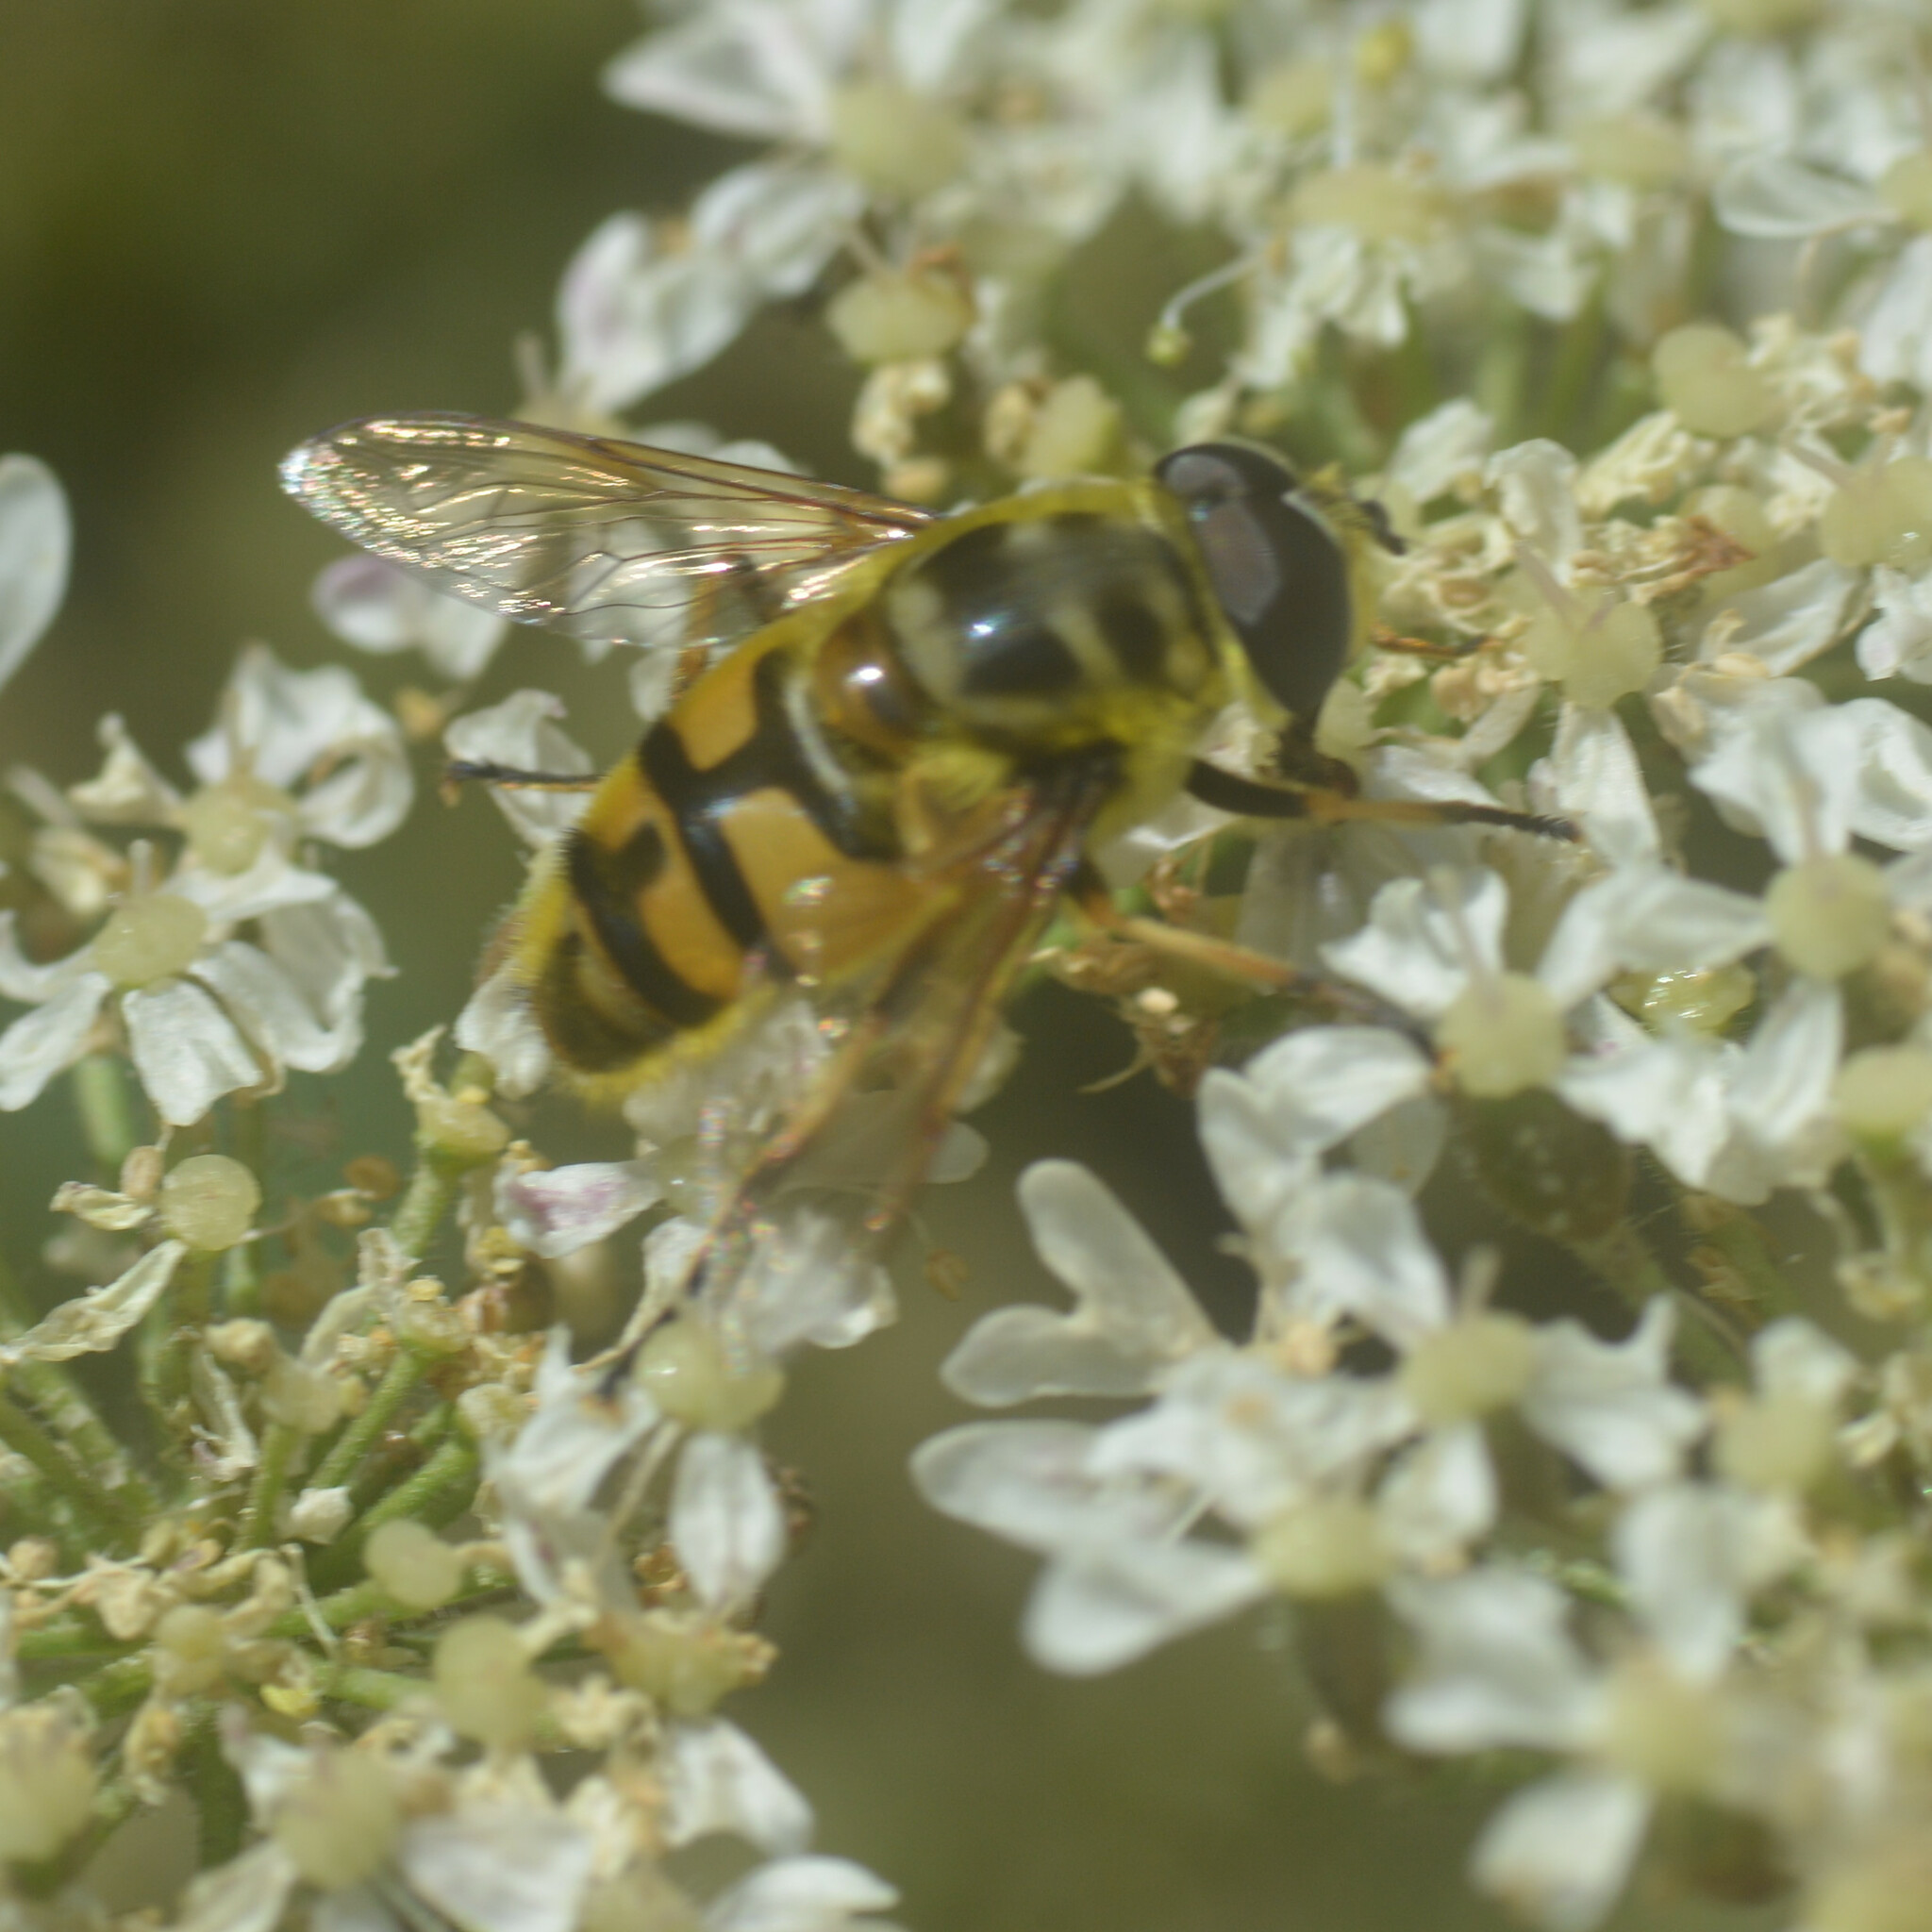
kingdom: Animalia
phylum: Arthropoda
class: Insecta
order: Diptera
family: Syrphidae
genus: Myathropa
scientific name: Myathropa florea
